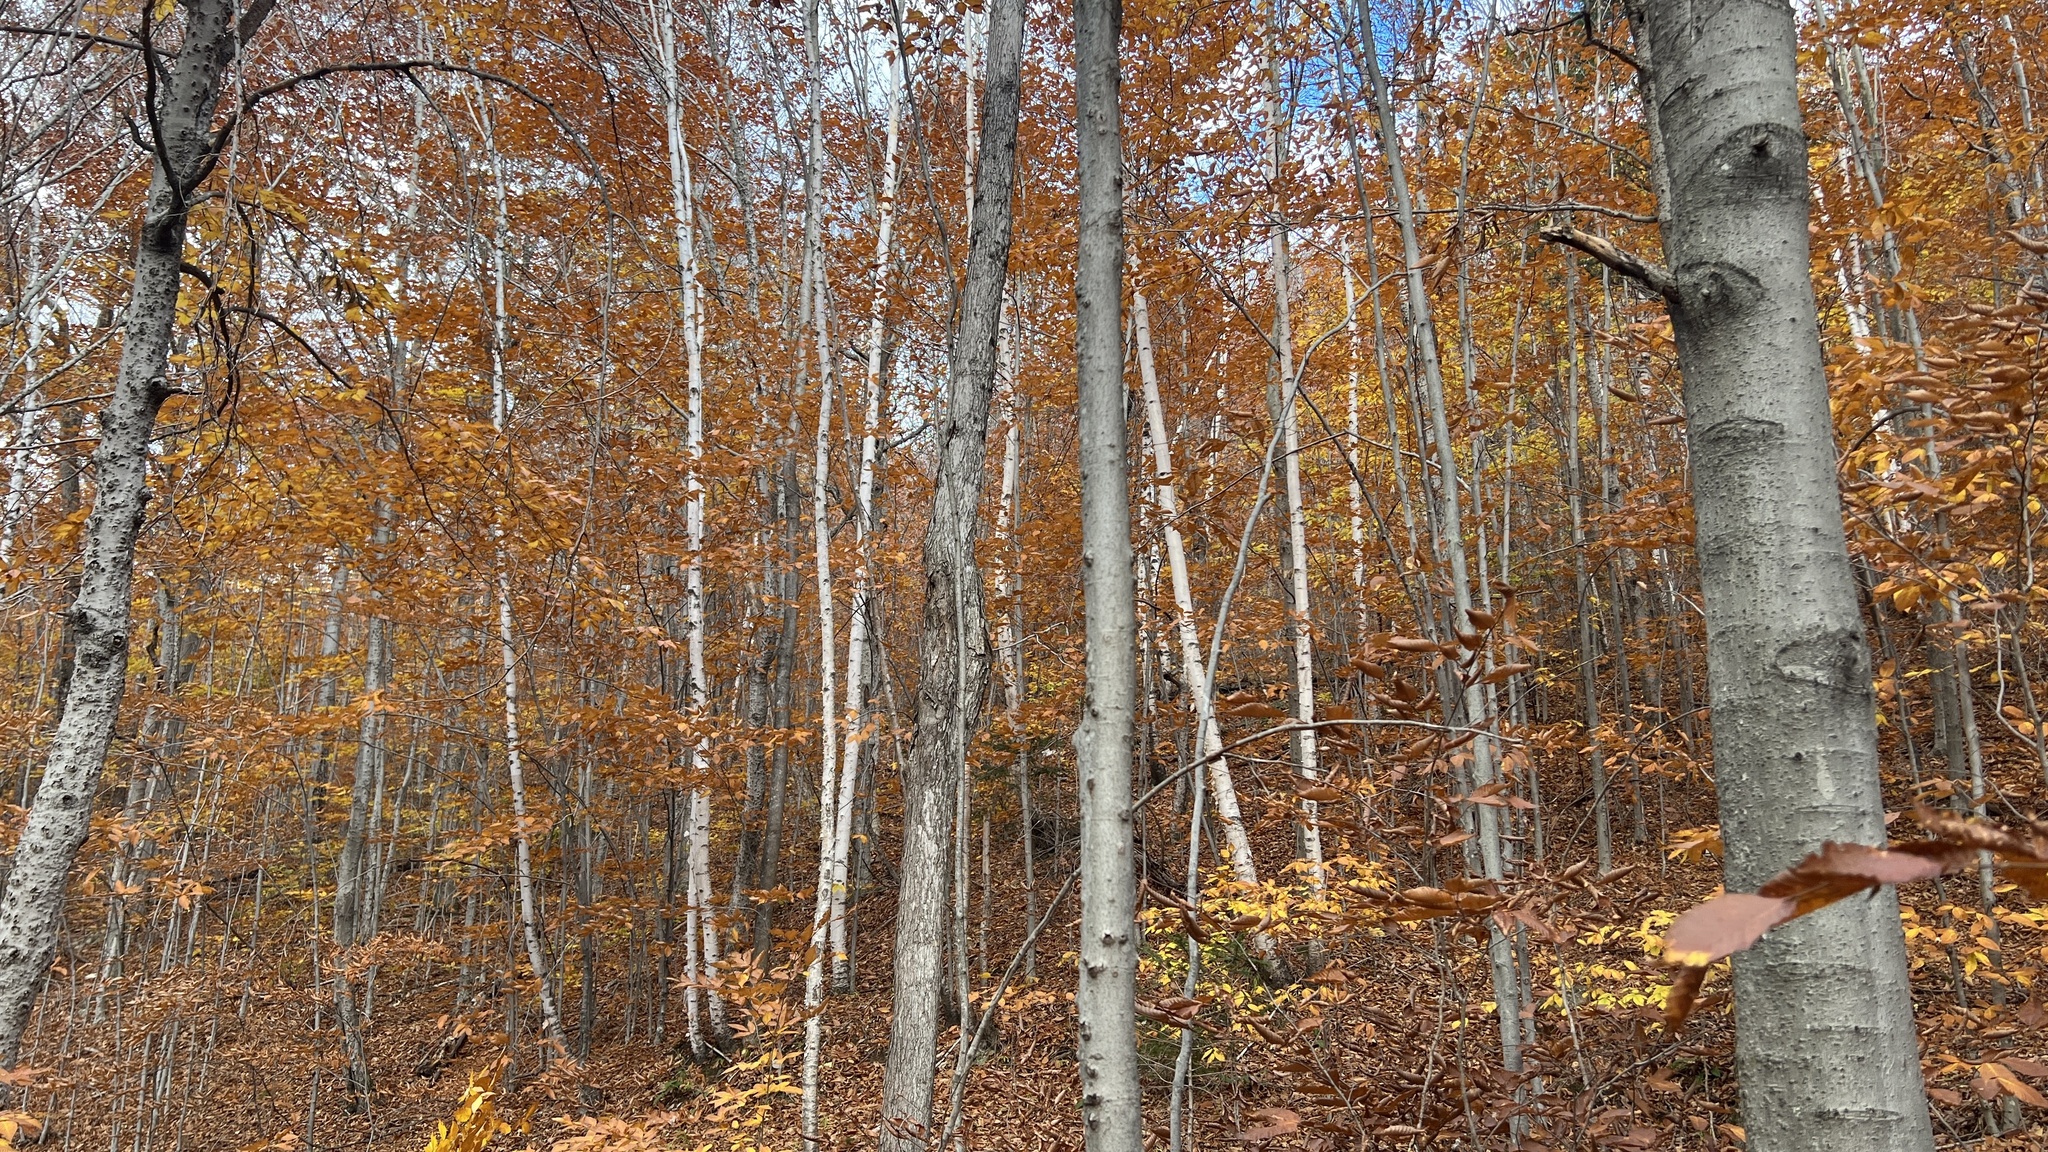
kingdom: Plantae
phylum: Tracheophyta
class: Magnoliopsida
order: Fagales
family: Fagaceae
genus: Fagus
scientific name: Fagus grandifolia
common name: American beech
